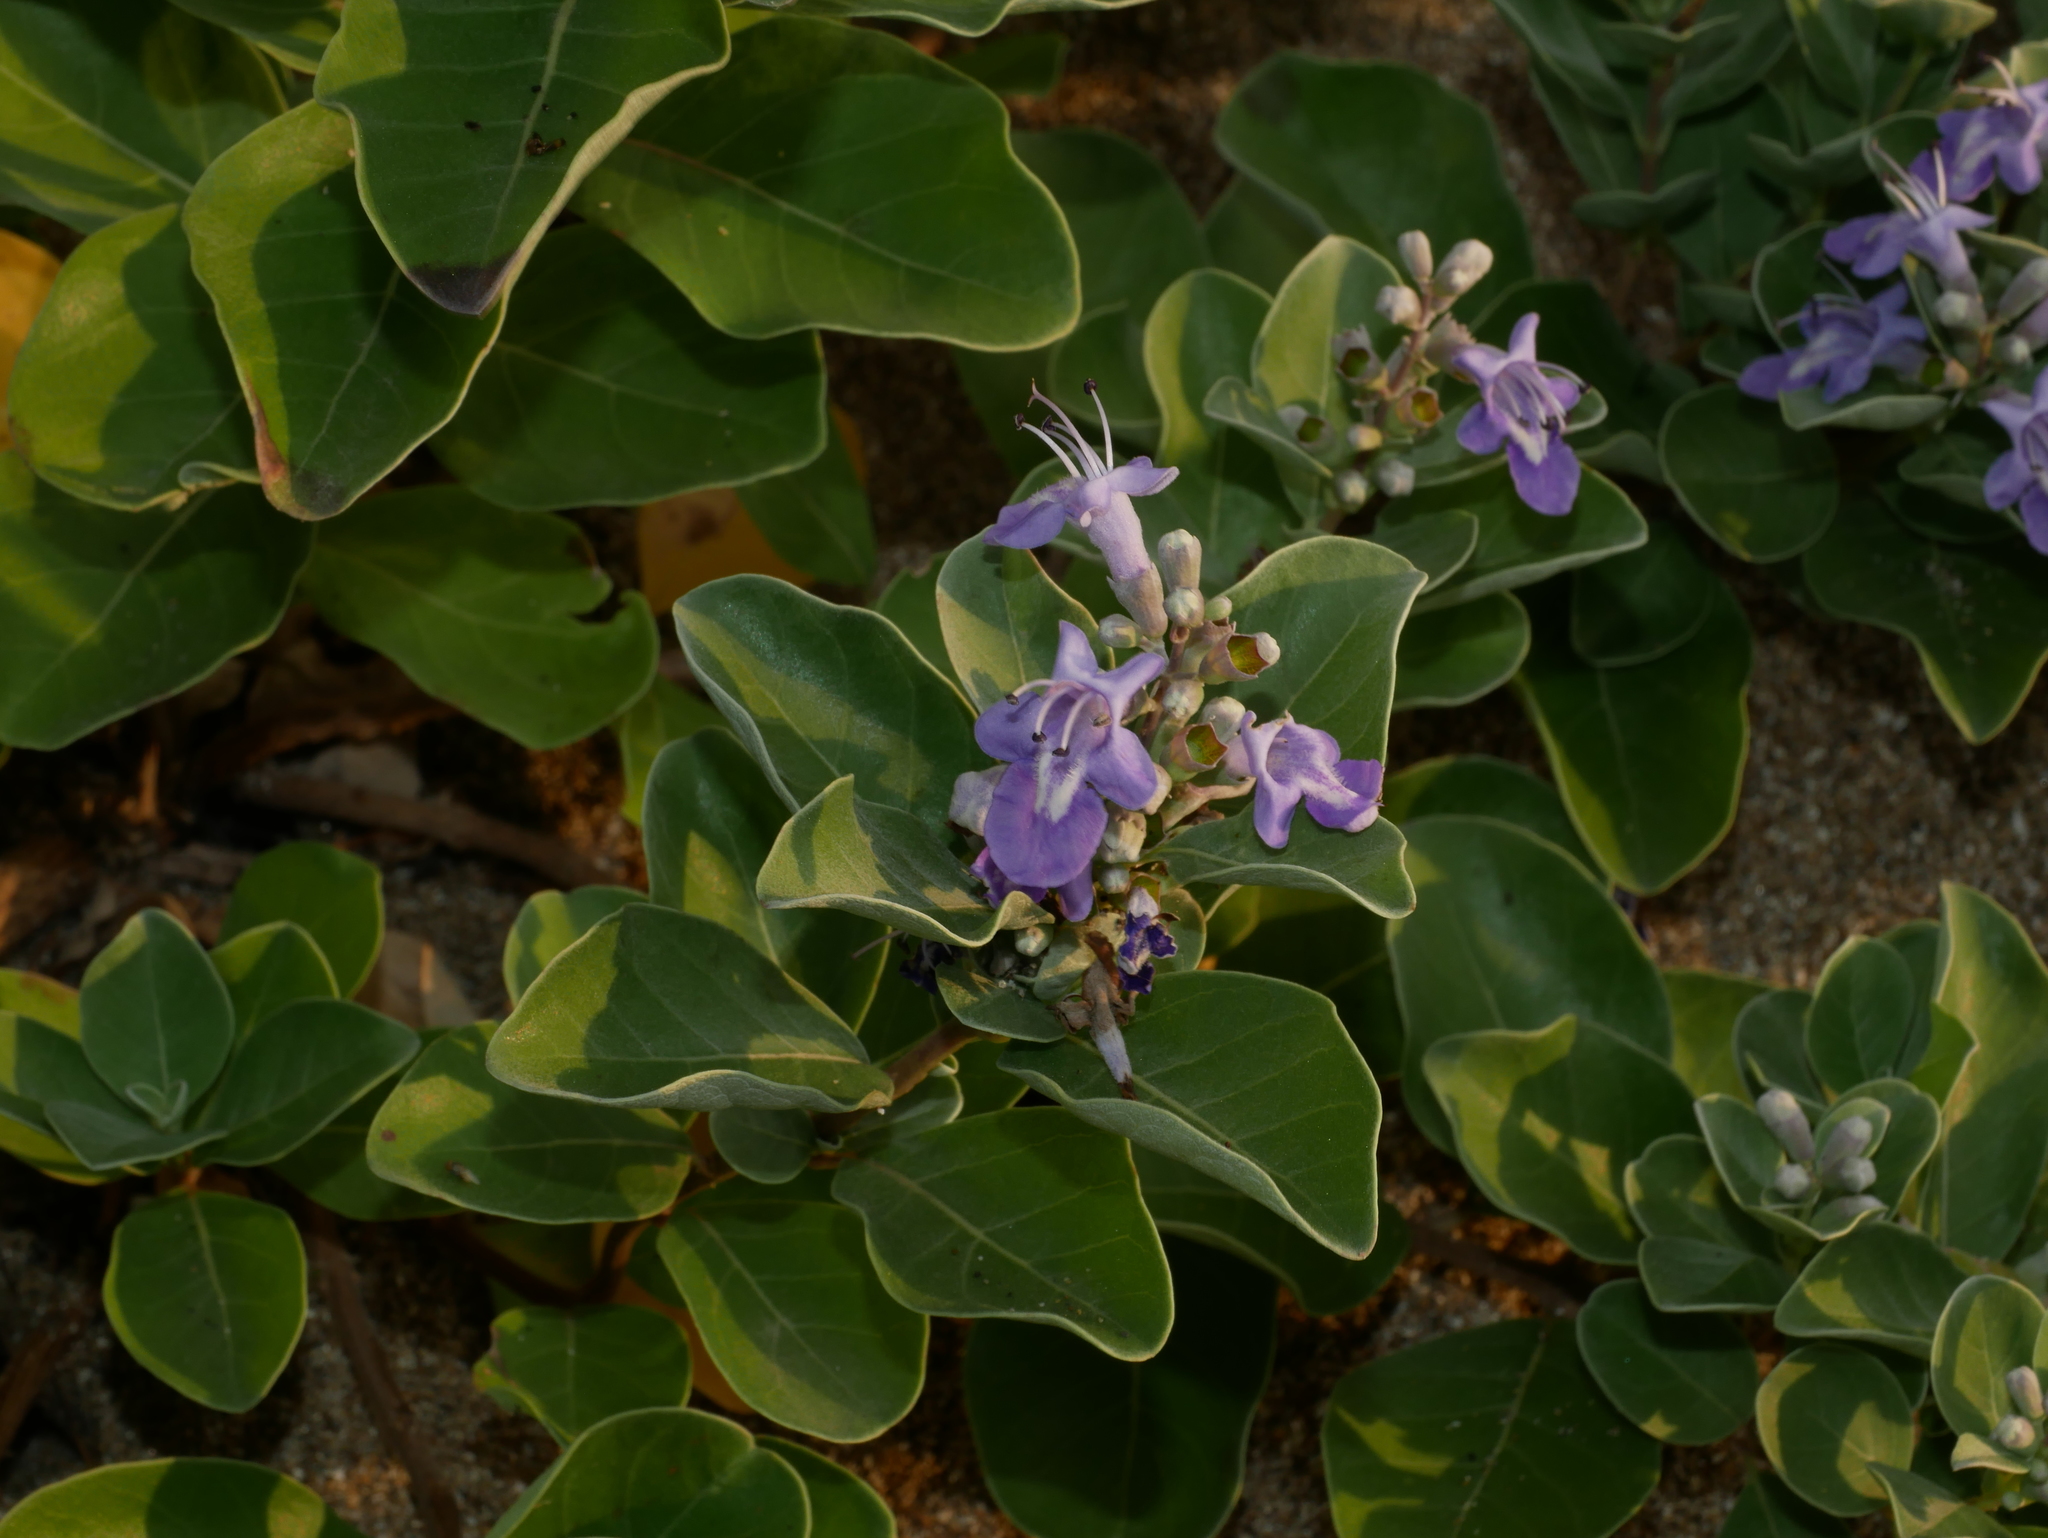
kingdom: Plantae
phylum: Tracheophyta
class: Magnoliopsida
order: Lamiales
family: Lamiaceae
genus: Vitex
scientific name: Vitex rotundifolia
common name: Beach vitex
